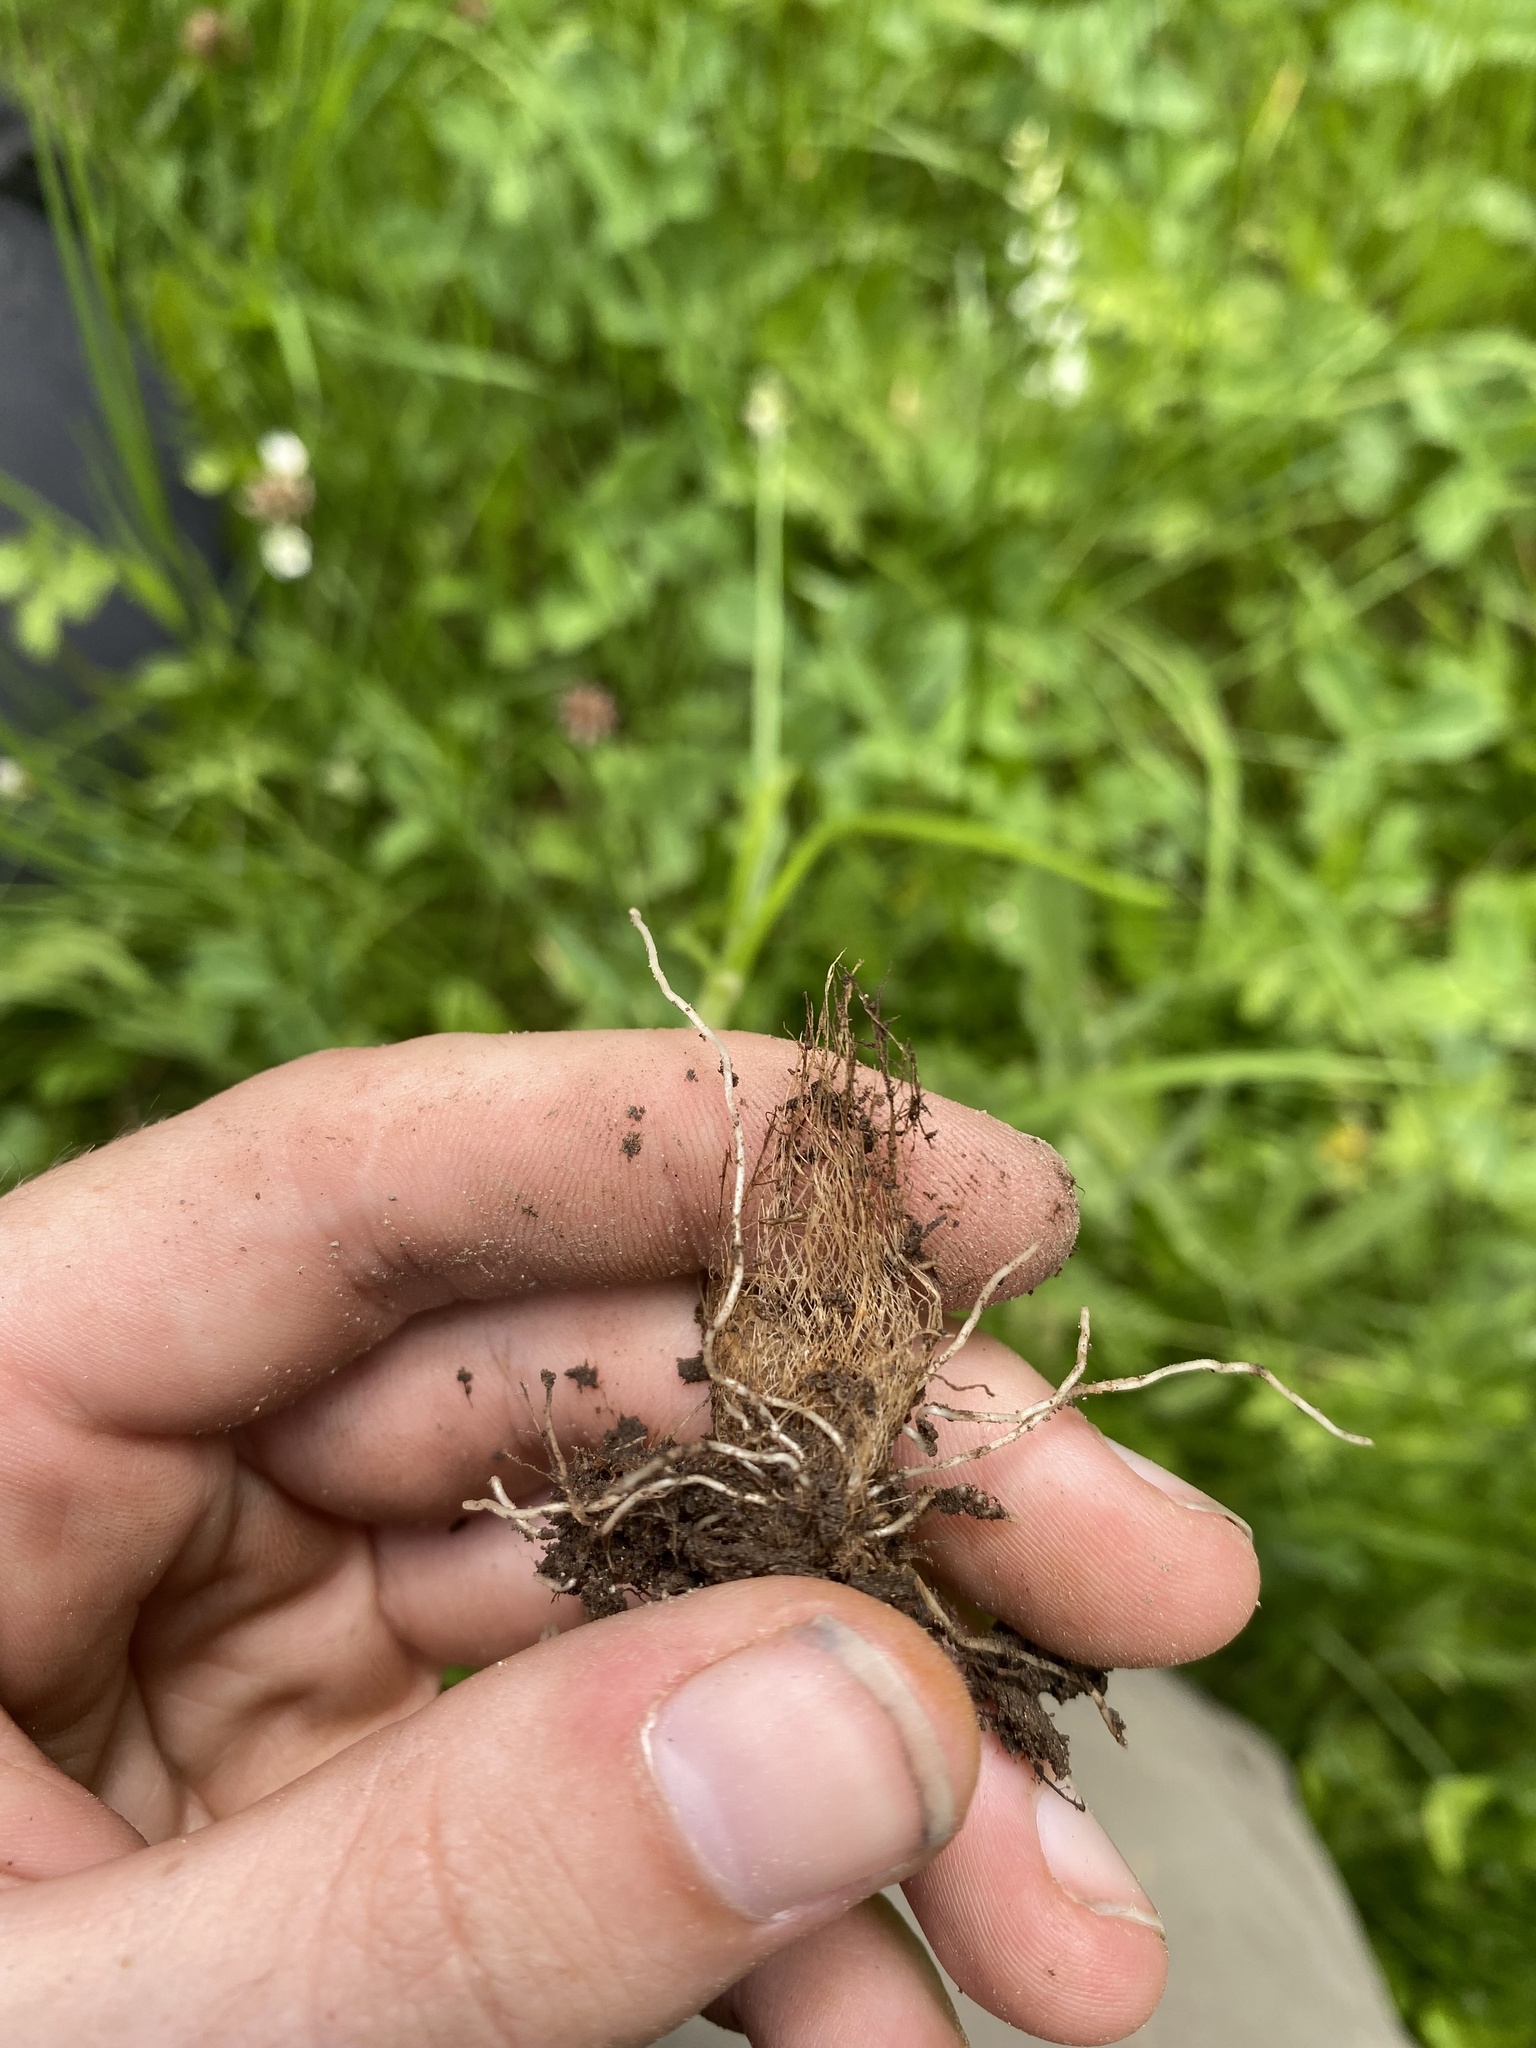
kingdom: Plantae
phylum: Tracheophyta
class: Liliopsida
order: Asparagales
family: Amaryllidaceae
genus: Allium
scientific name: Allium geyeri
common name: Geyer's onion
